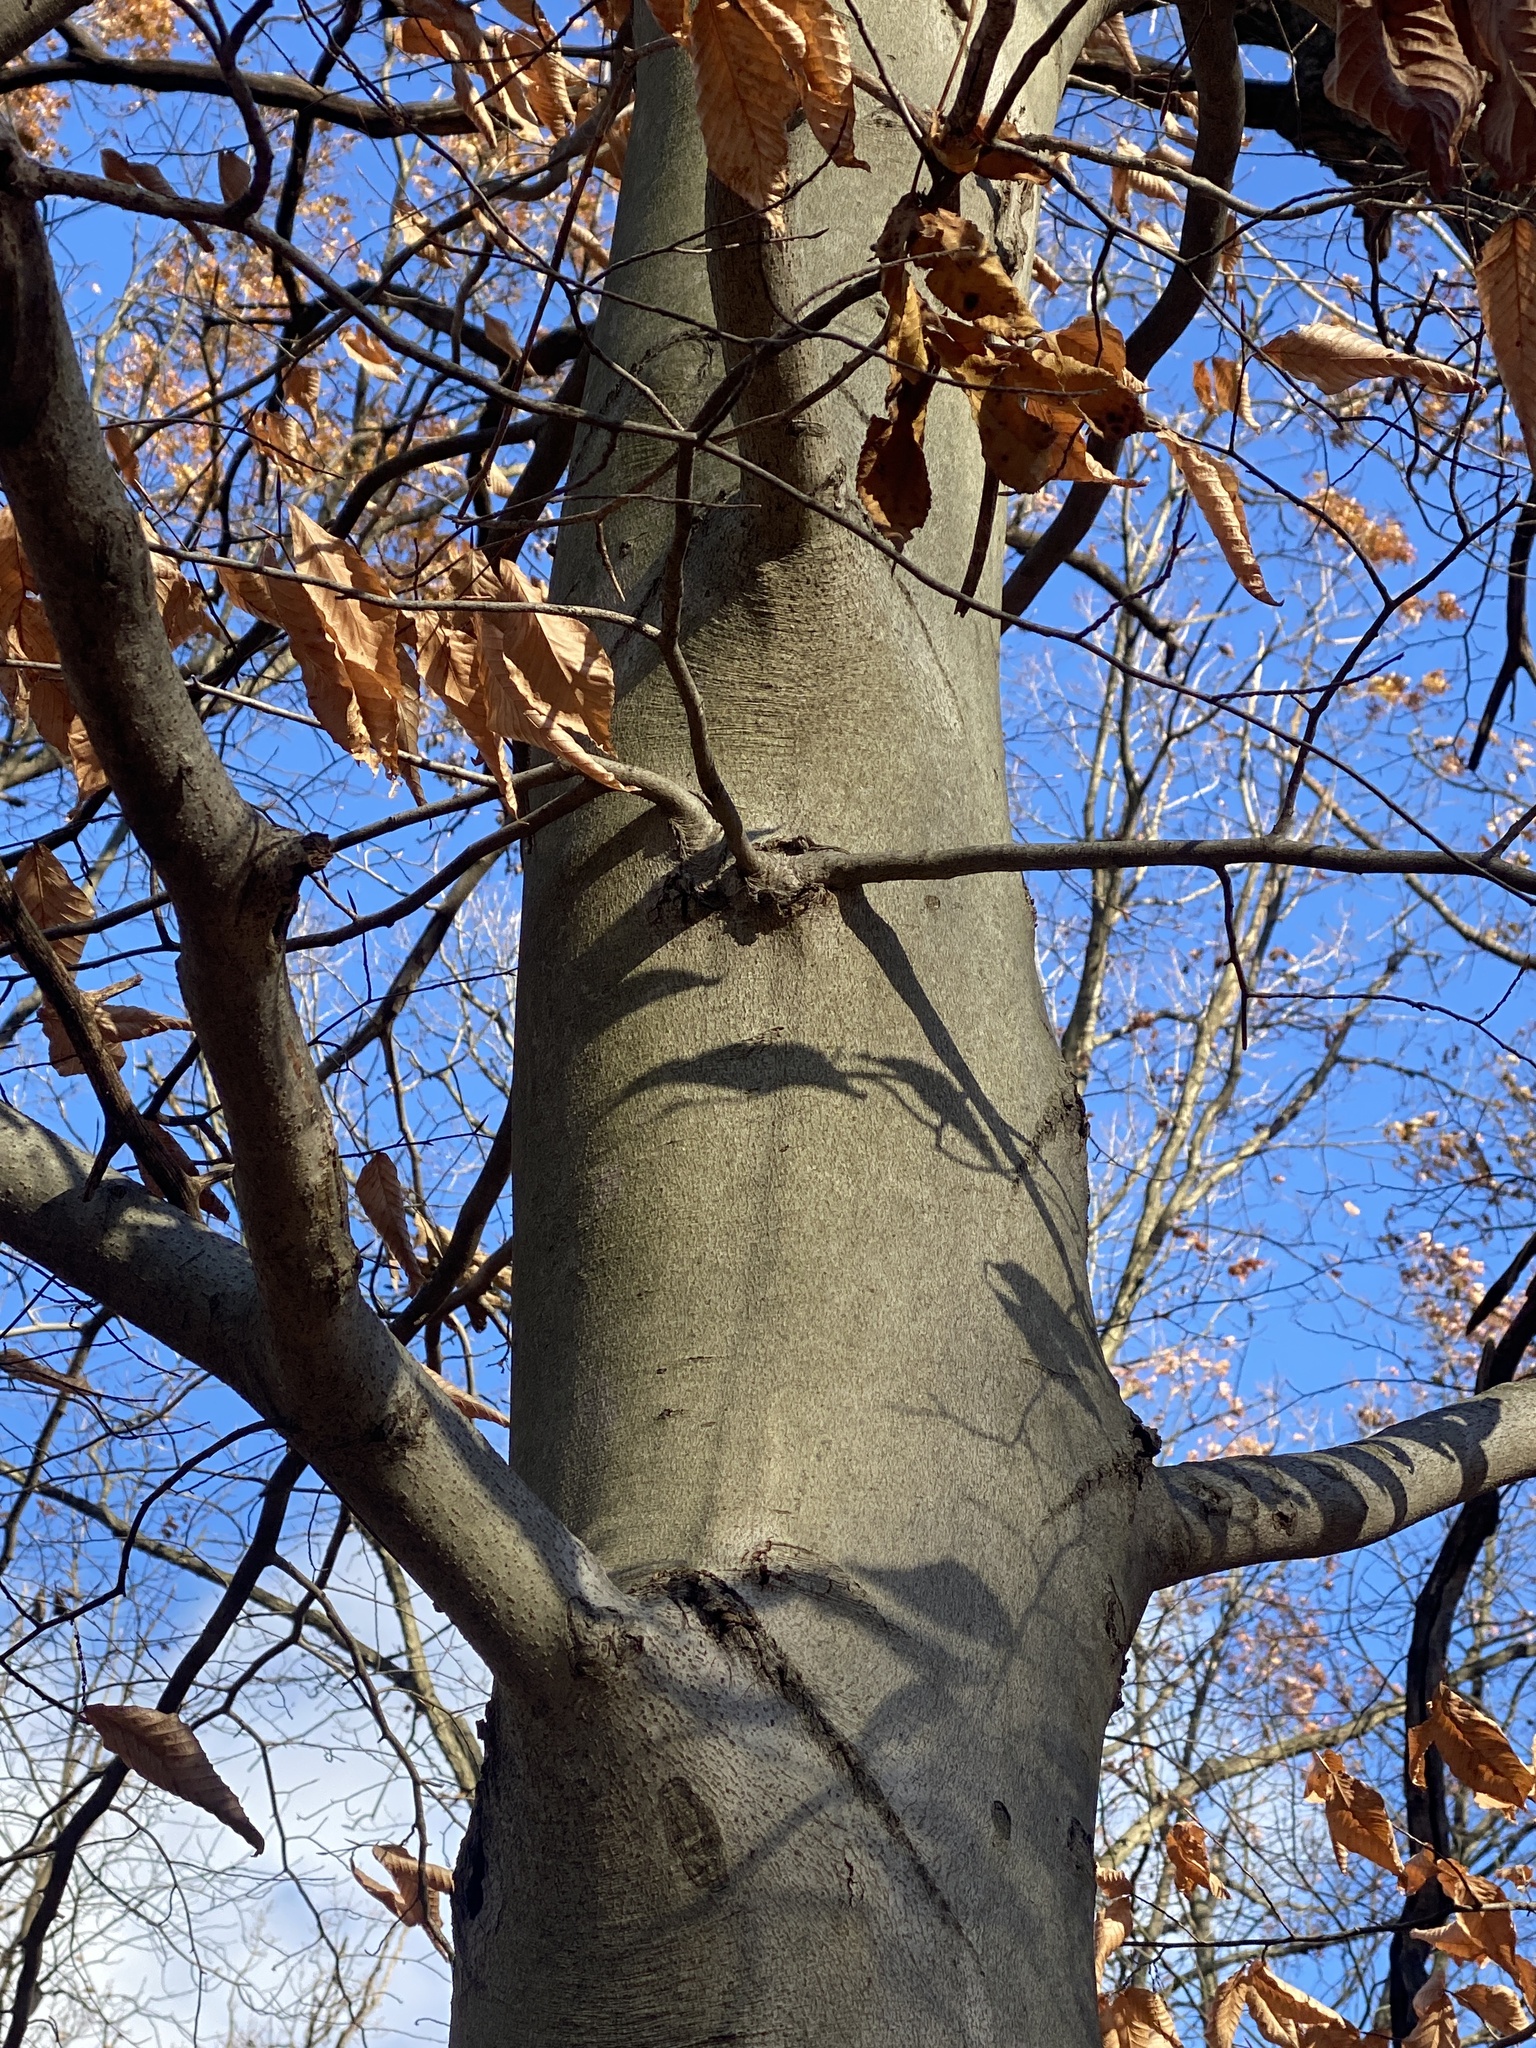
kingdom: Plantae
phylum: Tracheophyta
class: Magnoliopsida
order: Fagales
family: Fagaceae
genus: Fagus
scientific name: Fagus grandifolia
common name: American beech
